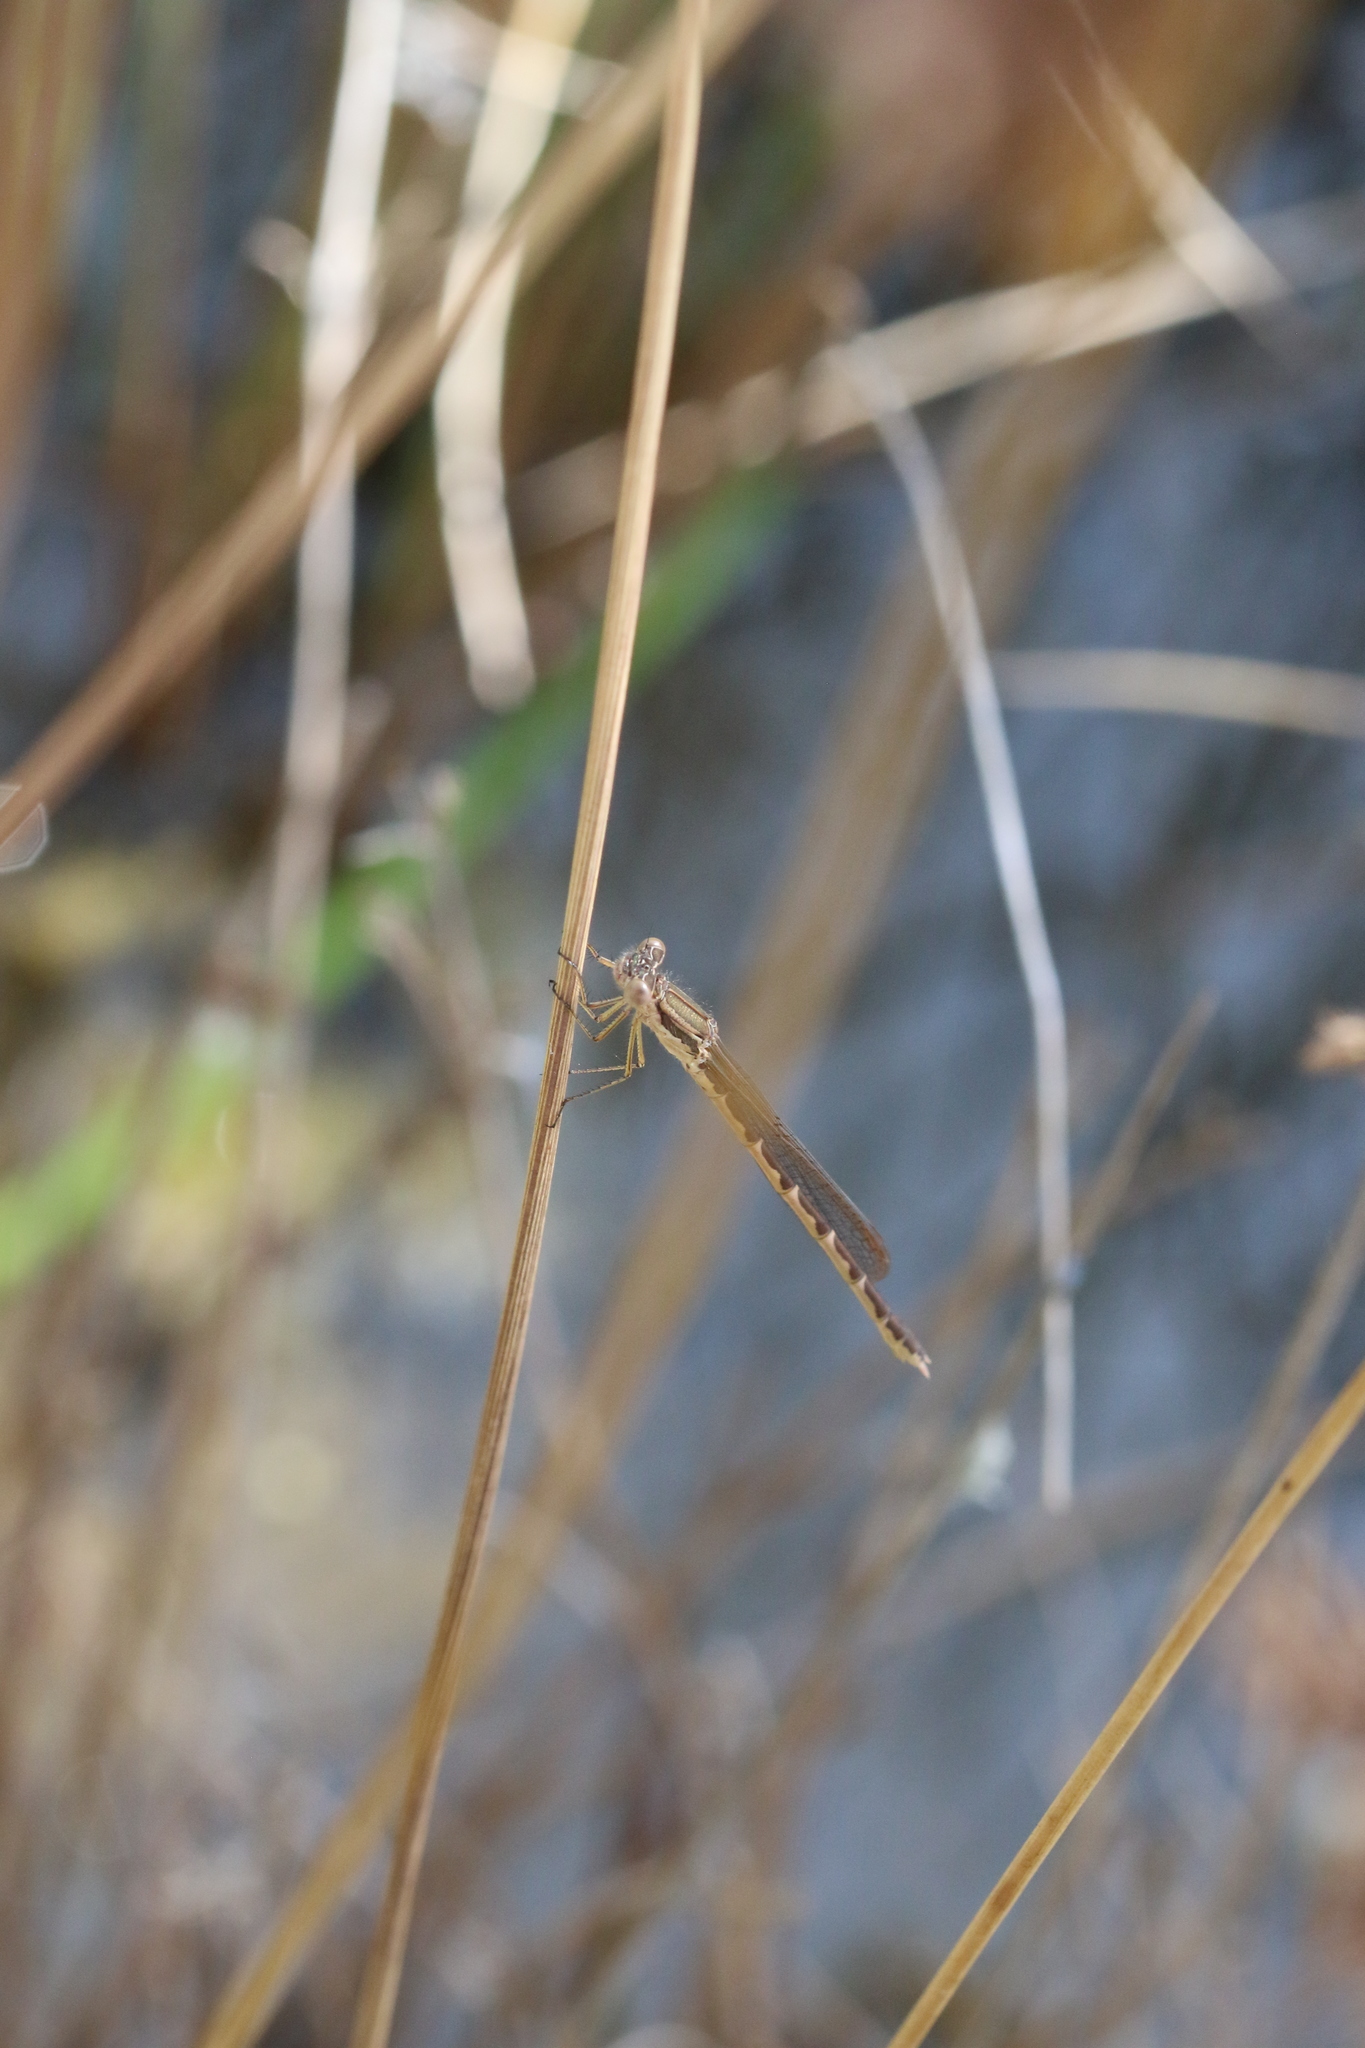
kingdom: Animalia
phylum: Arthropoda
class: Insecta
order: Odonata
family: Lestidae
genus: Sympecma
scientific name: Sympecma fusca
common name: Common winter damsel
